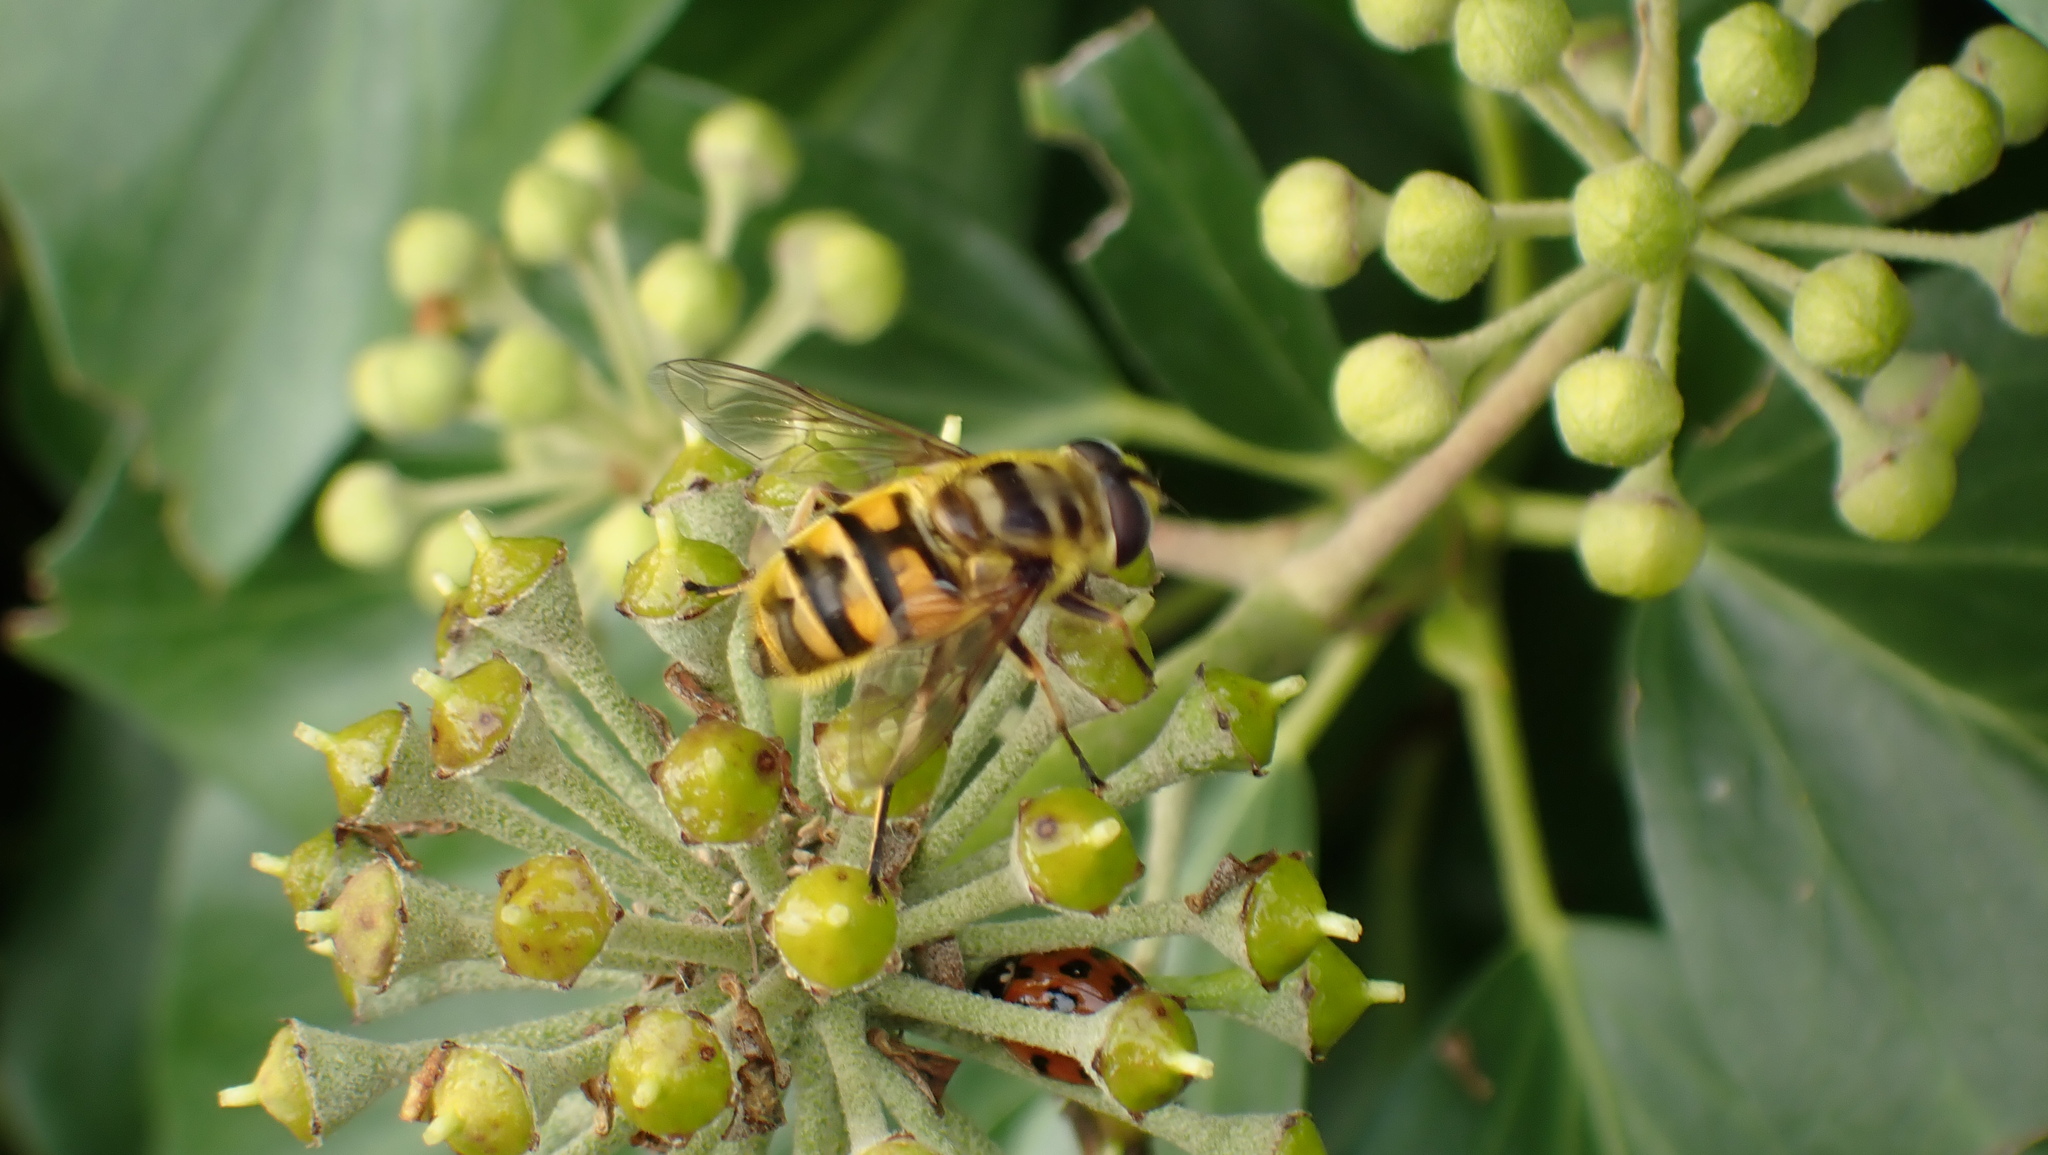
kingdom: Animalia
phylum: Arthropoda
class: Insecta
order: Diptera
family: Syrphidae
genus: Myathropa
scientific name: Myathropa florea
